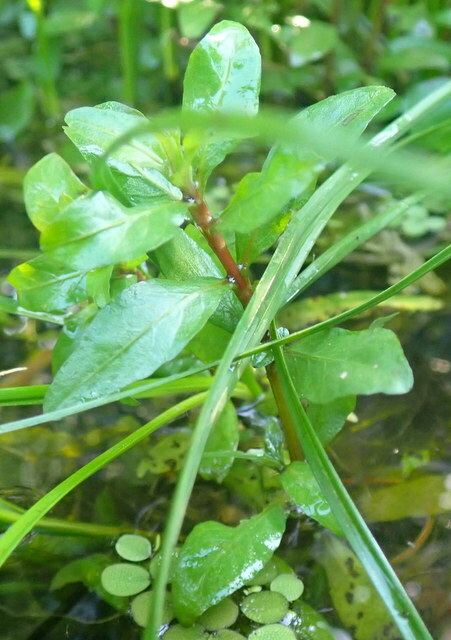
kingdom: Plantae
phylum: Tracheophyta
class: Magnoliopsida
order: Lamiales
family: Acanthaceae
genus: Hygrophila
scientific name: Hygrophila polysperma
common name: Indian swampweed
